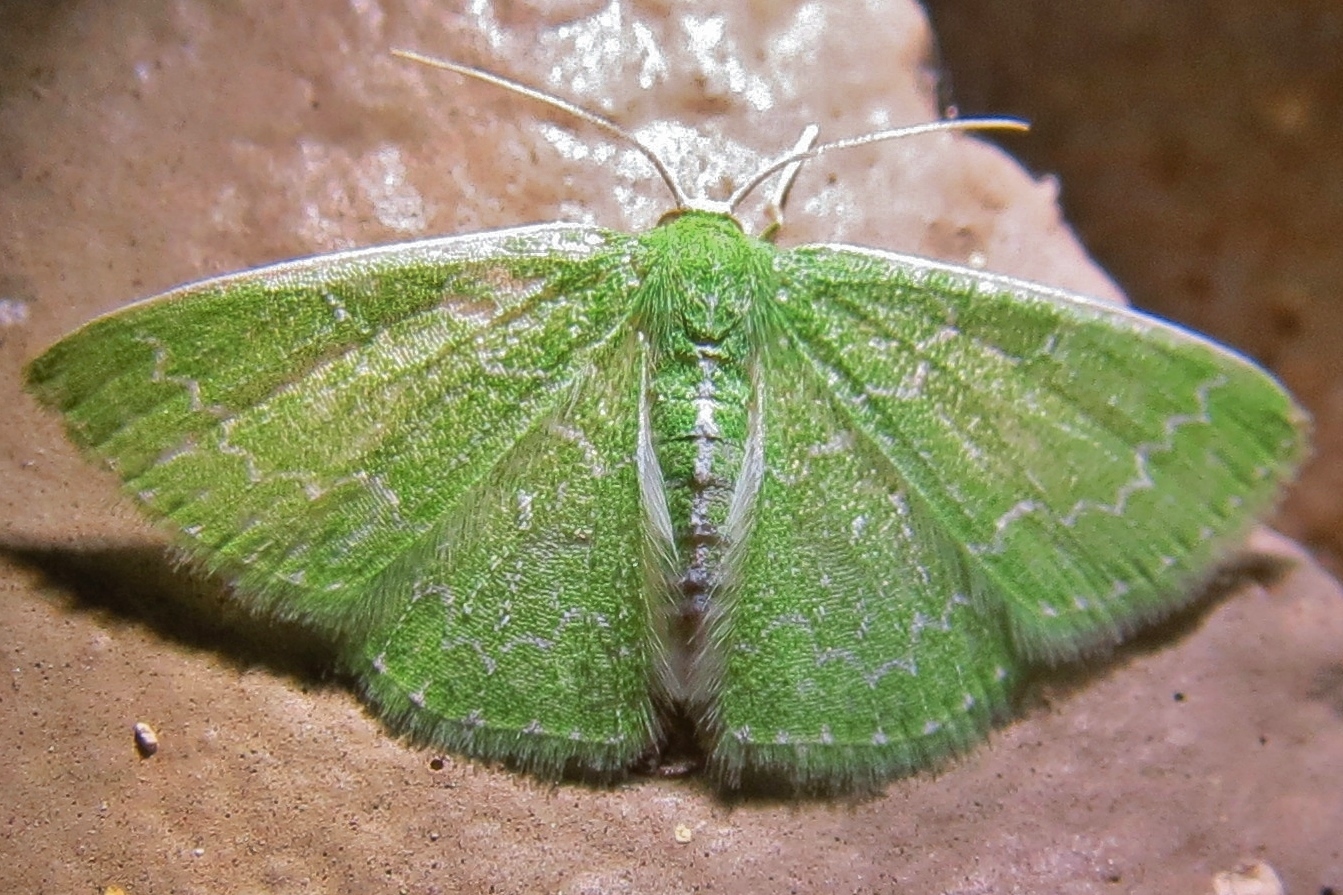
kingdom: Animalia
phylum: Arthropoda
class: Insecta
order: Lepidoptera
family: Geometridae
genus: Synchlora
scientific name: Synchlora frondaria
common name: Southern emerald
